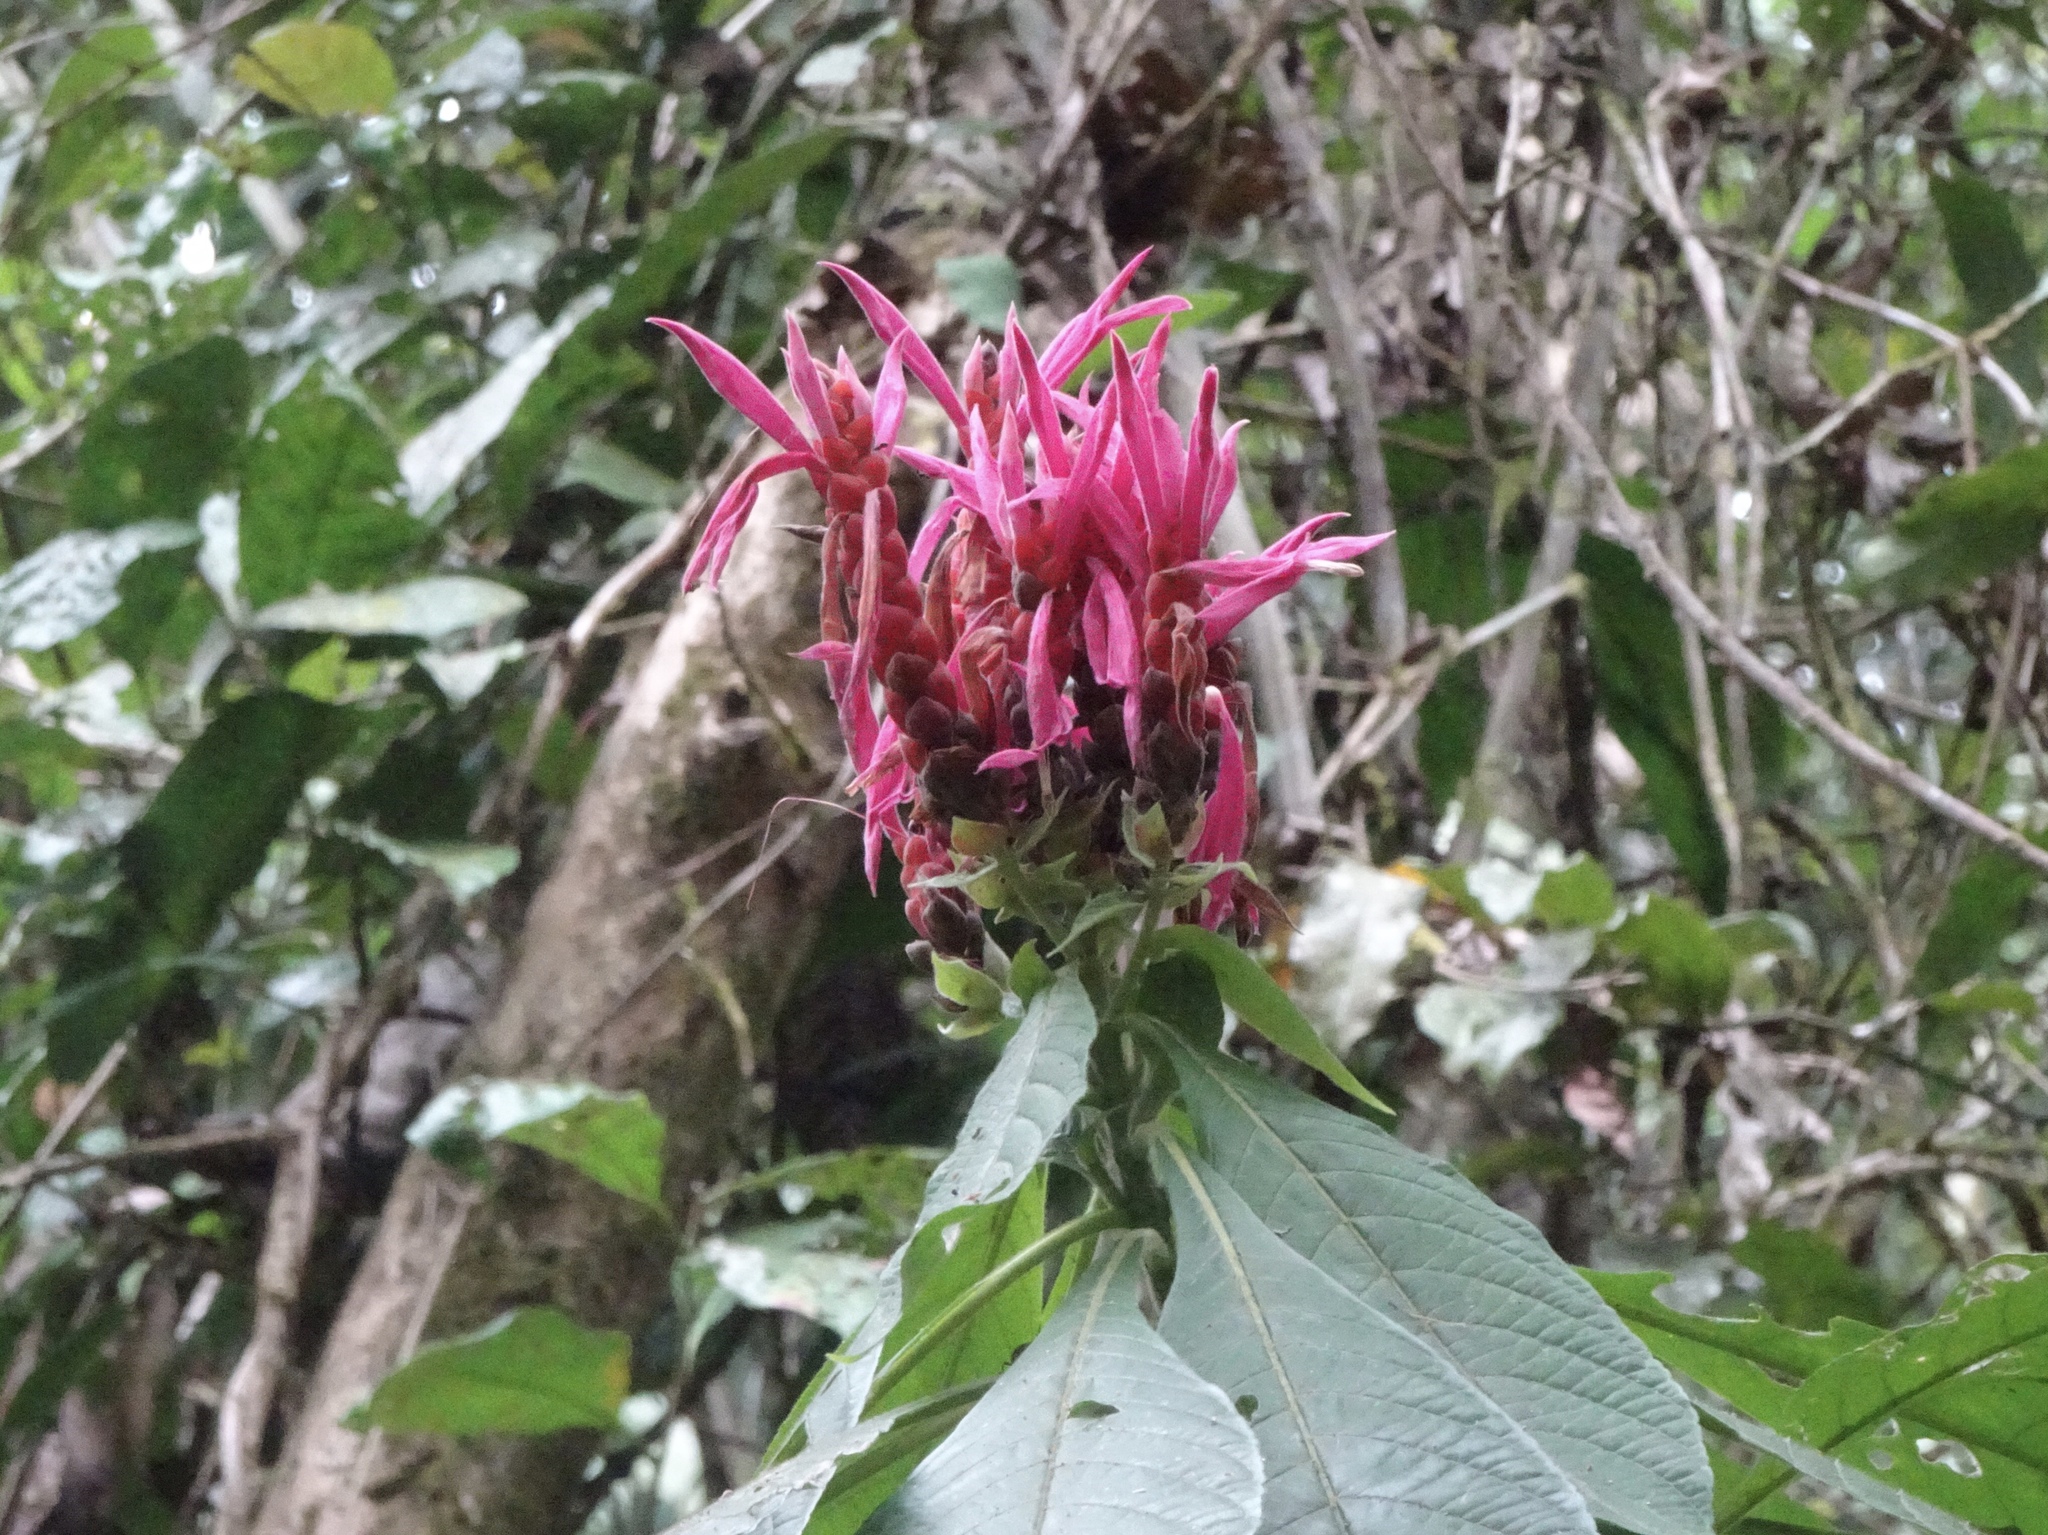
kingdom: Plantae
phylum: Tracheophyta
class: Magnoliopsida
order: Lamiales
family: Acanthaceae
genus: Aphelandra
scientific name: Aphelandra sinclairiana
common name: Coral aphelandra
